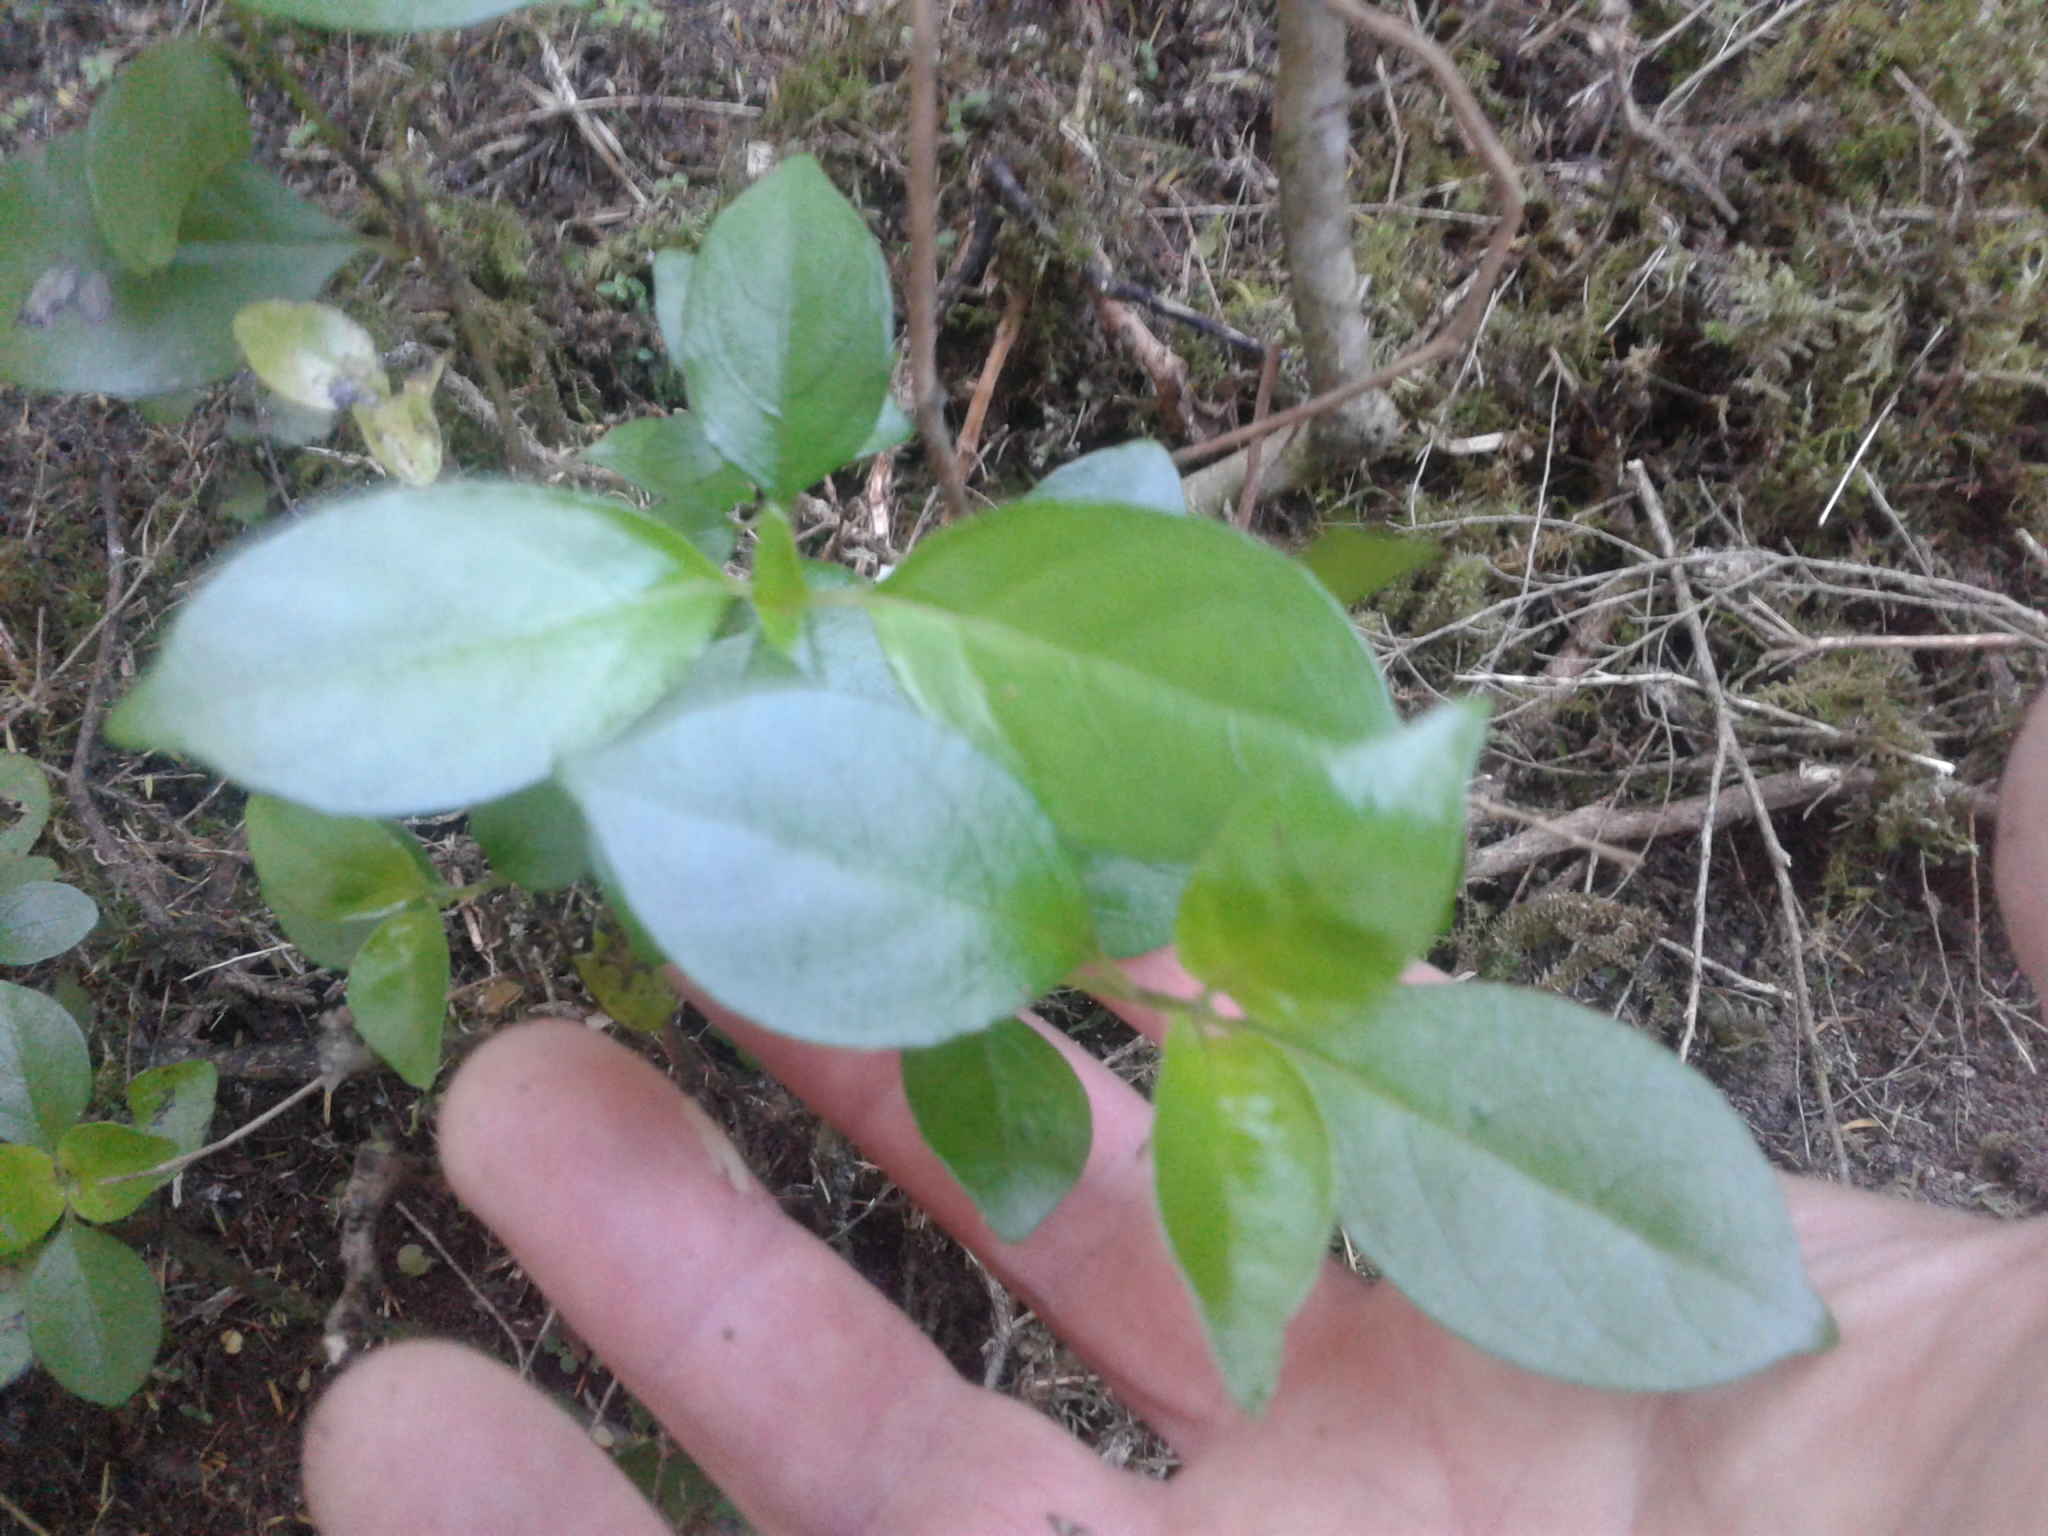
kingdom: Plantae
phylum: Tracheophyta
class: Magnoliopsida
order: Gentianales
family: Loganiaceae
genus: Geniostoma
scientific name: Geniostoma ligustrifolium
